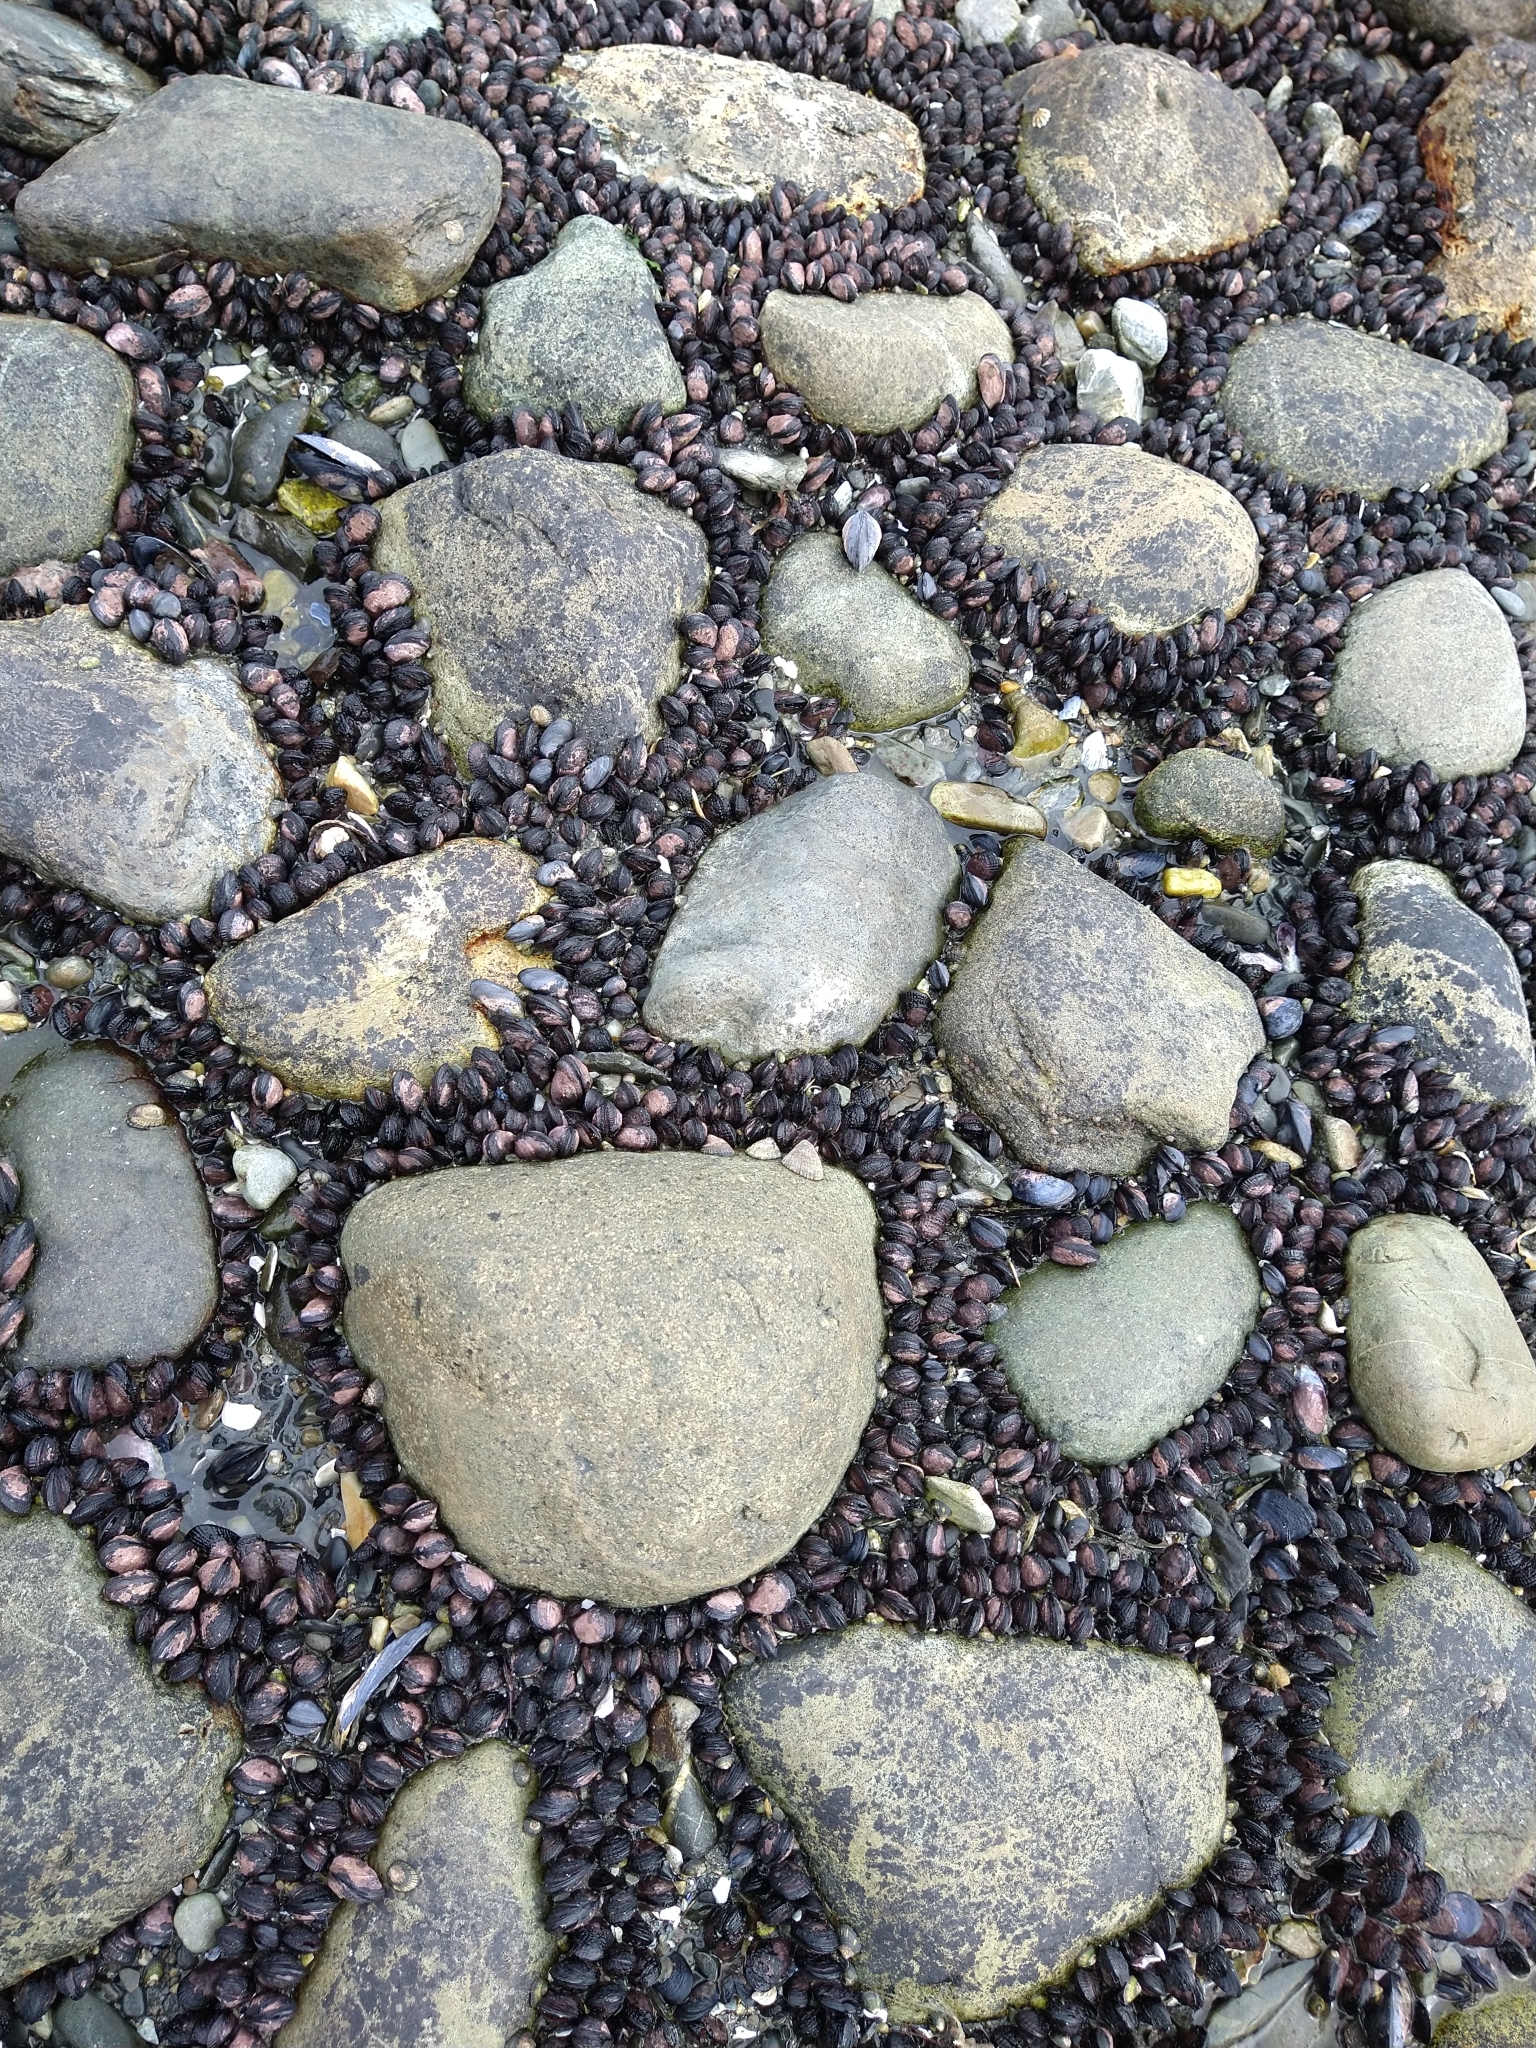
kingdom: Animalia
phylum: Mollusca
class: Bivalvia
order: Mytilida
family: Mytilidae
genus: Perumytilus
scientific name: Perumytilus purpuratus
